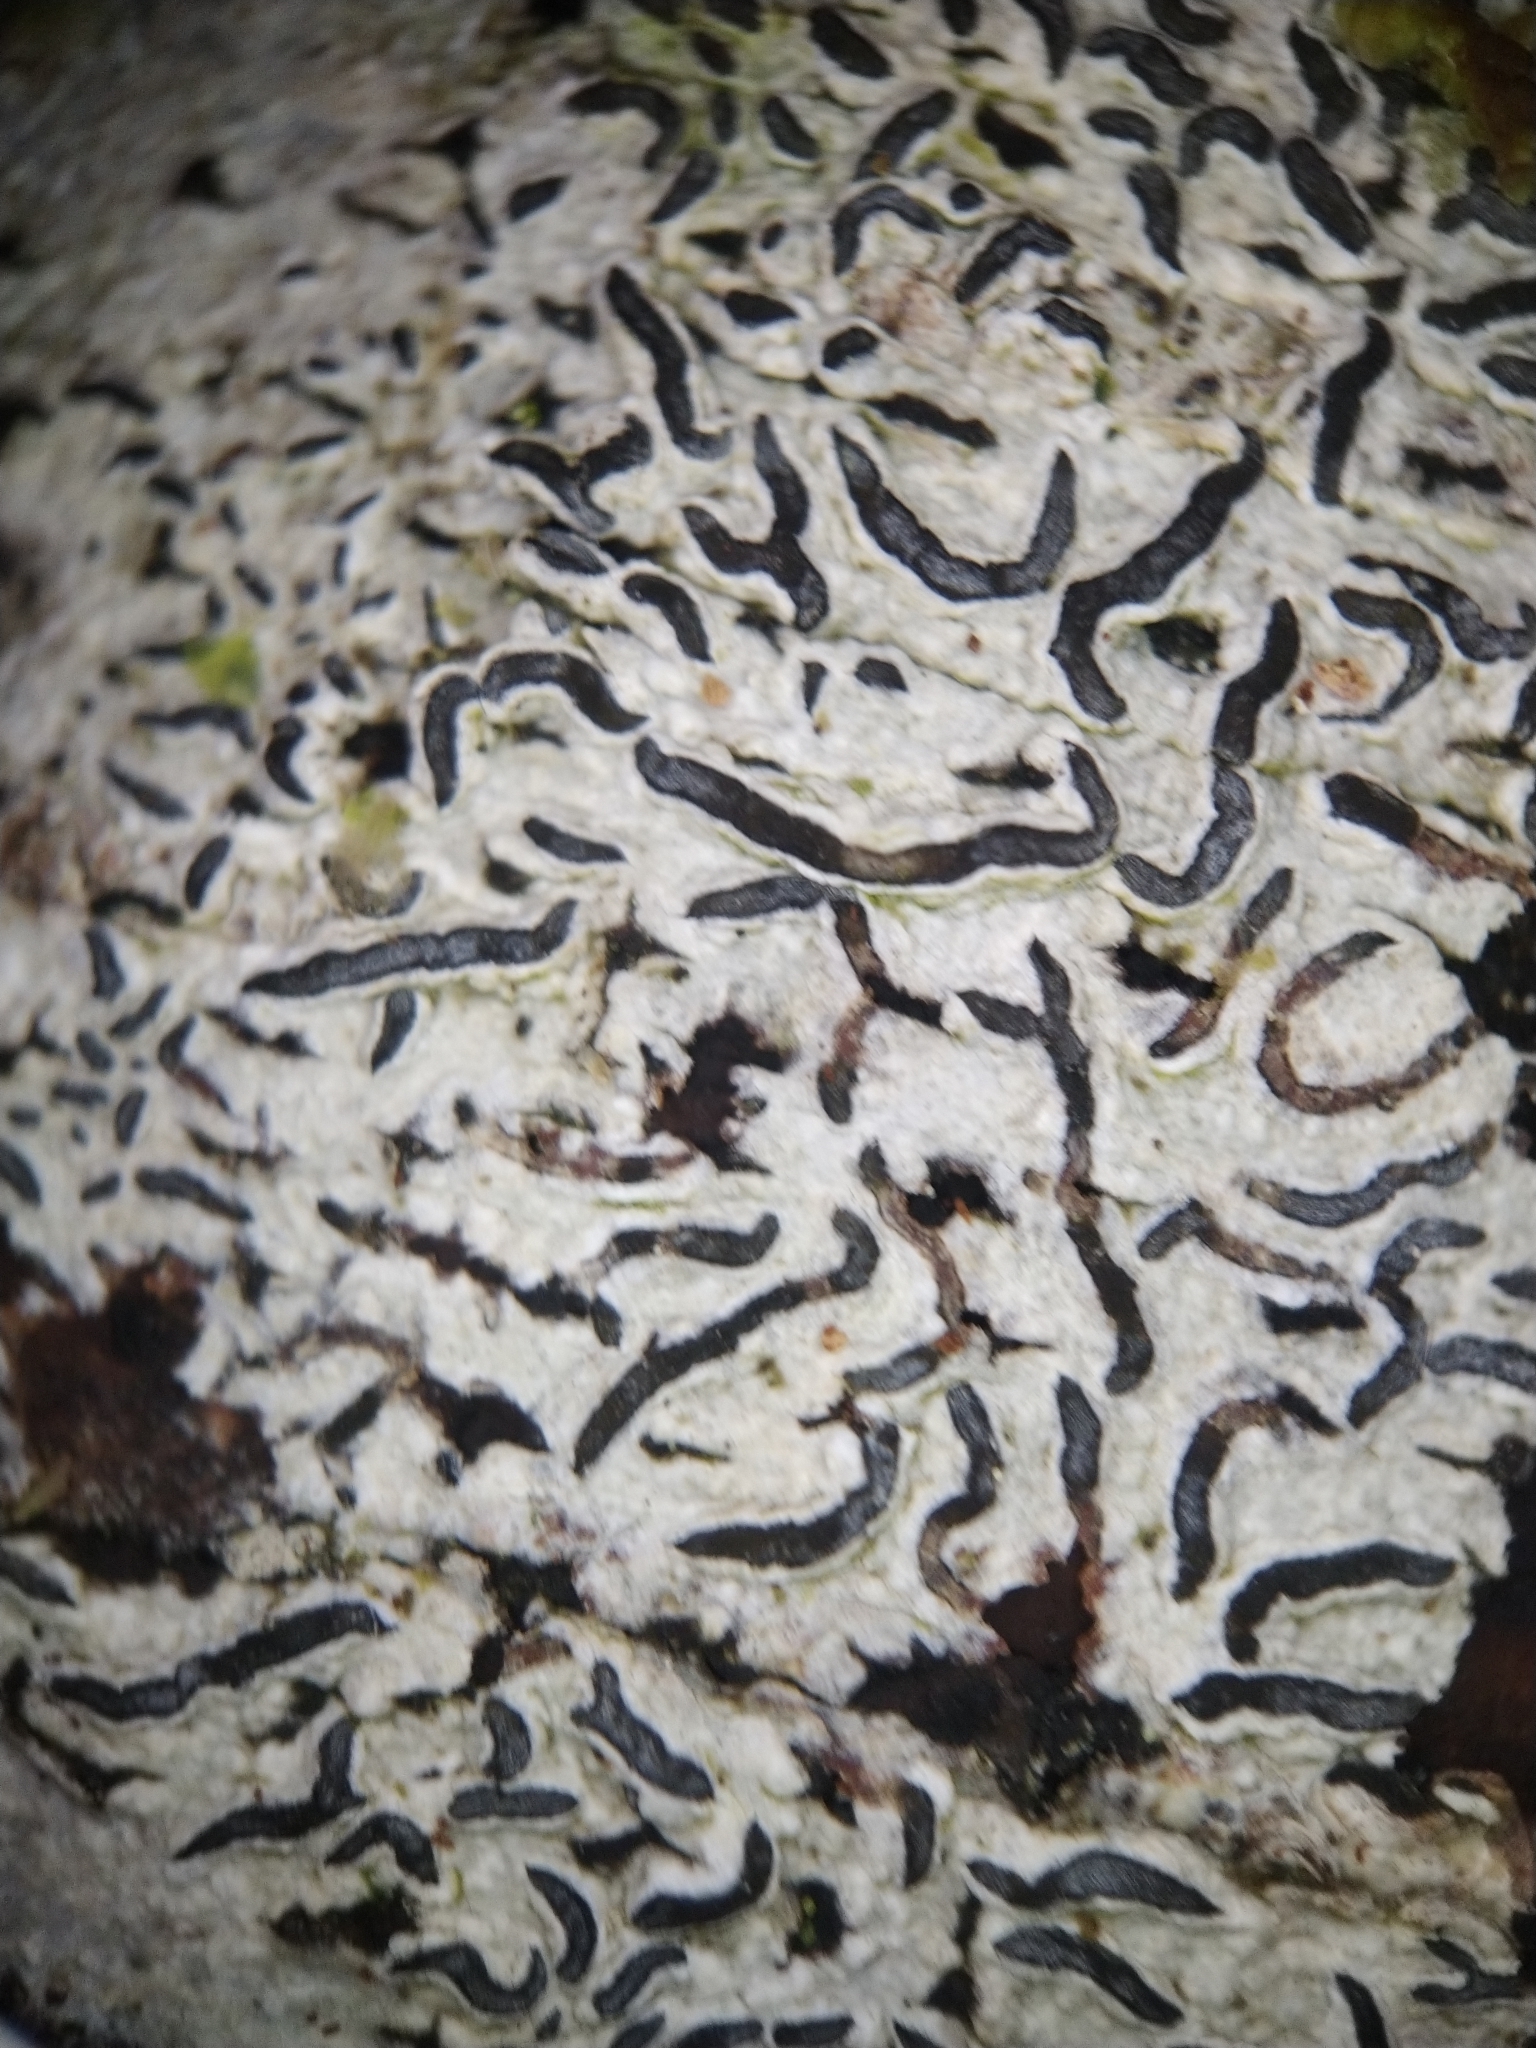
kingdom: Fungi
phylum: Ascomycota
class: Lecanoromycetes
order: Ostropales
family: Graphidaceae
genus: Graphis
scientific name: Graphis scripta
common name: Script lichen
